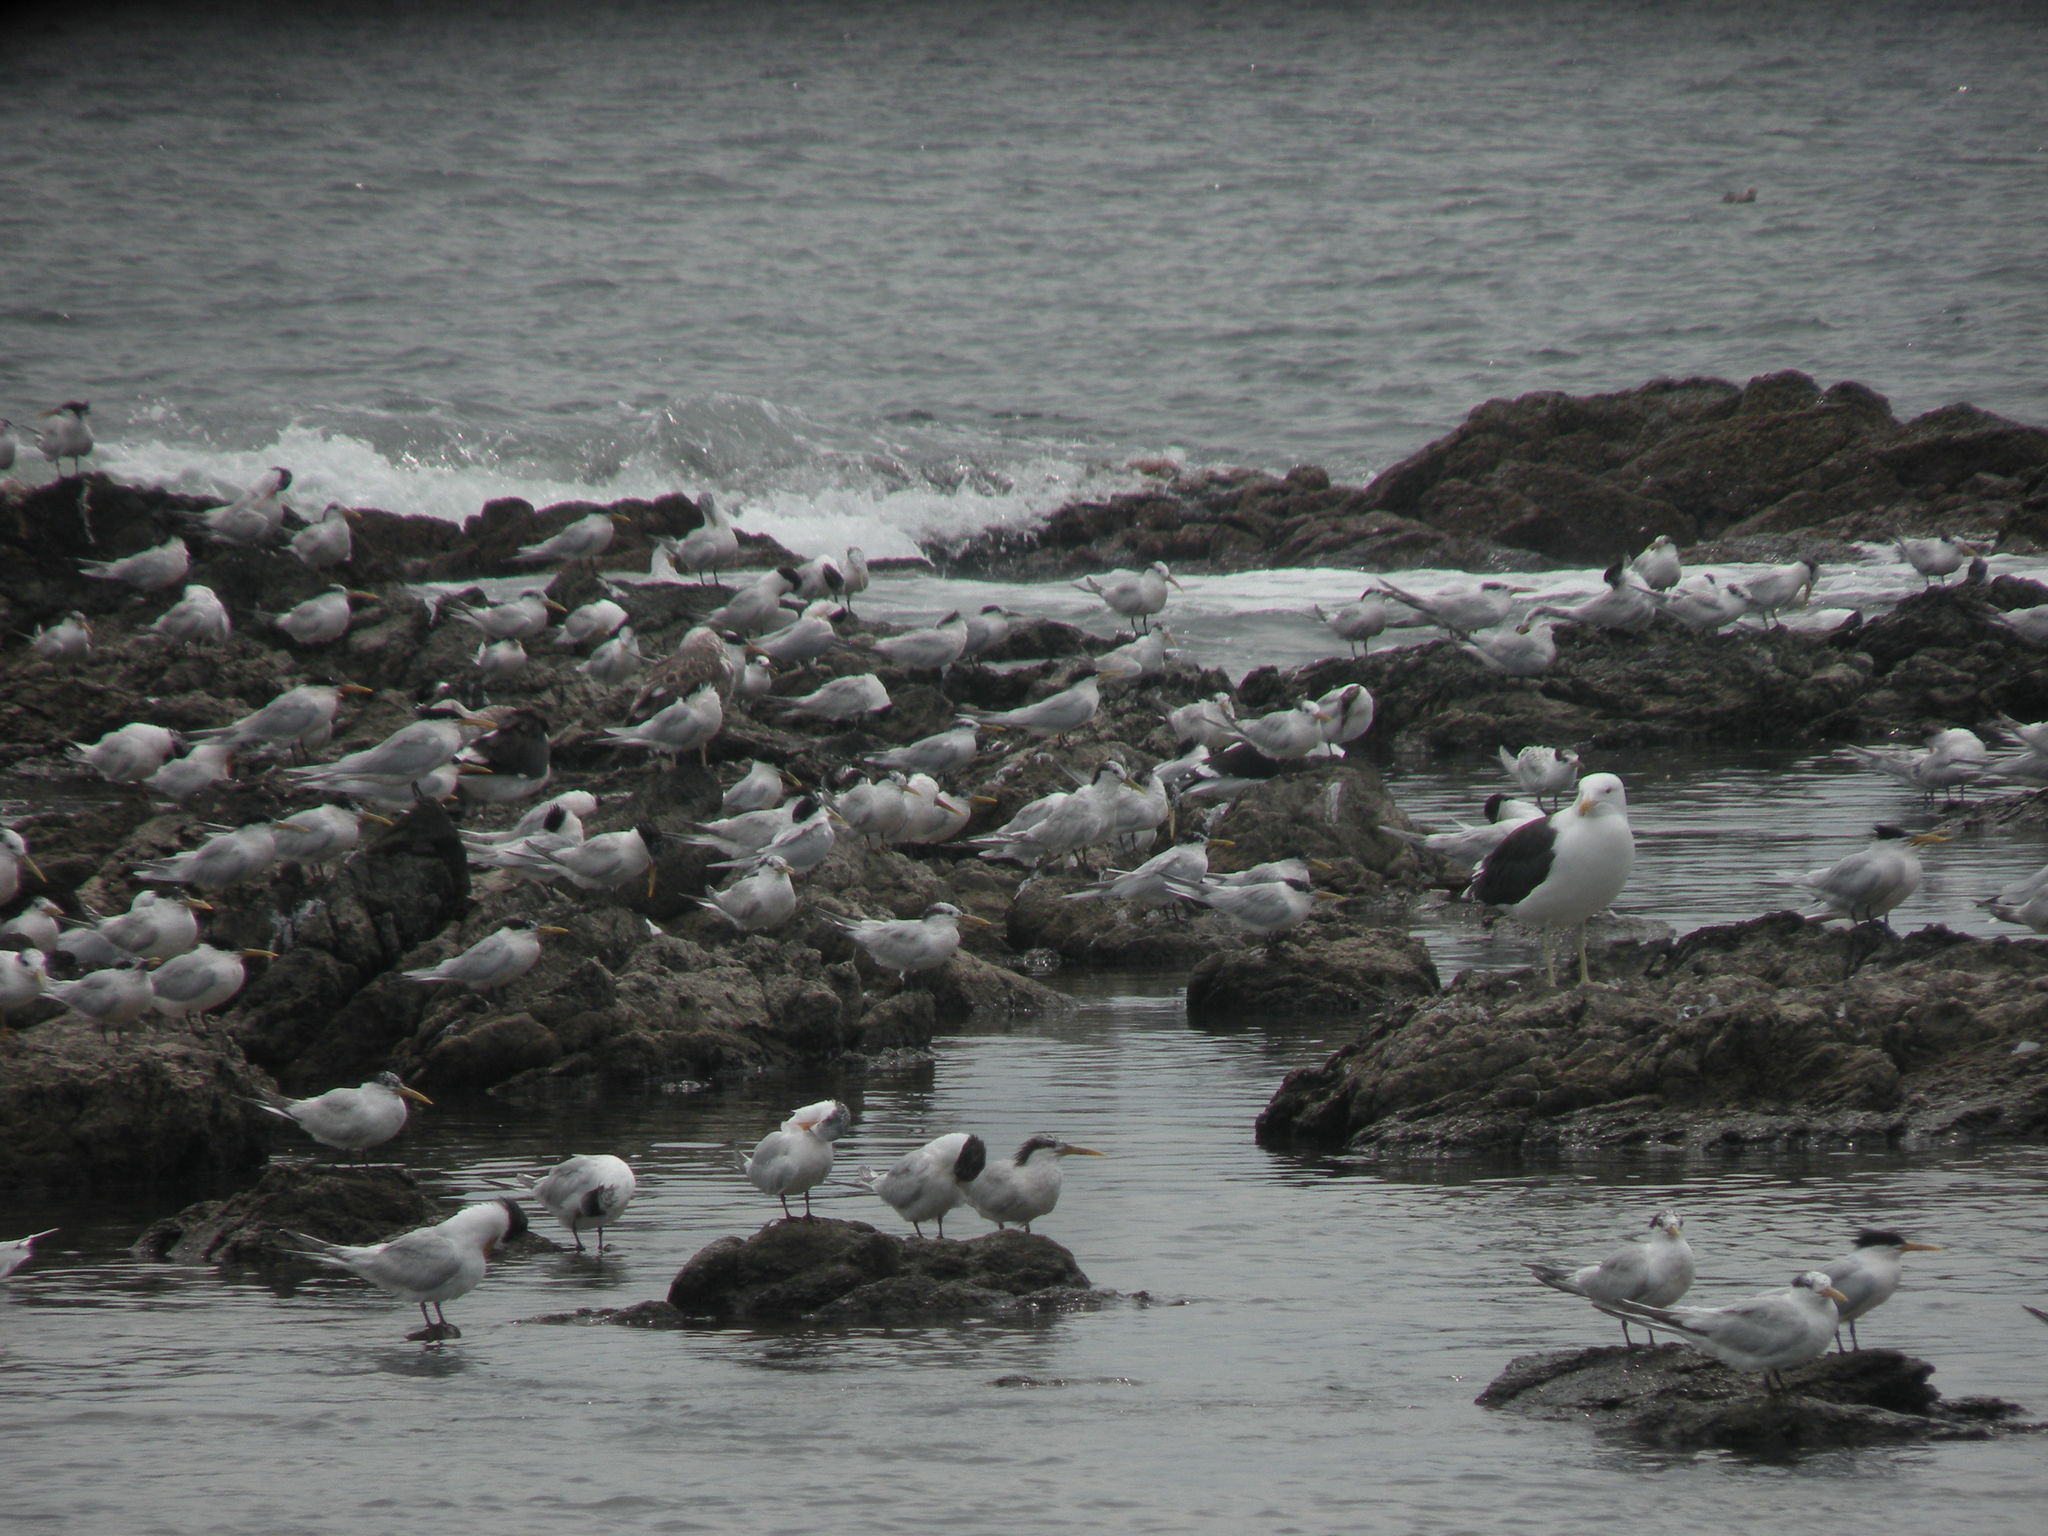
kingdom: Animalia
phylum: Chordata
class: Aves
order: Charadriiformes
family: Laridae
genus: Thalasseus
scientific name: Thalasseus sandvicensis
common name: Sandwich tern
